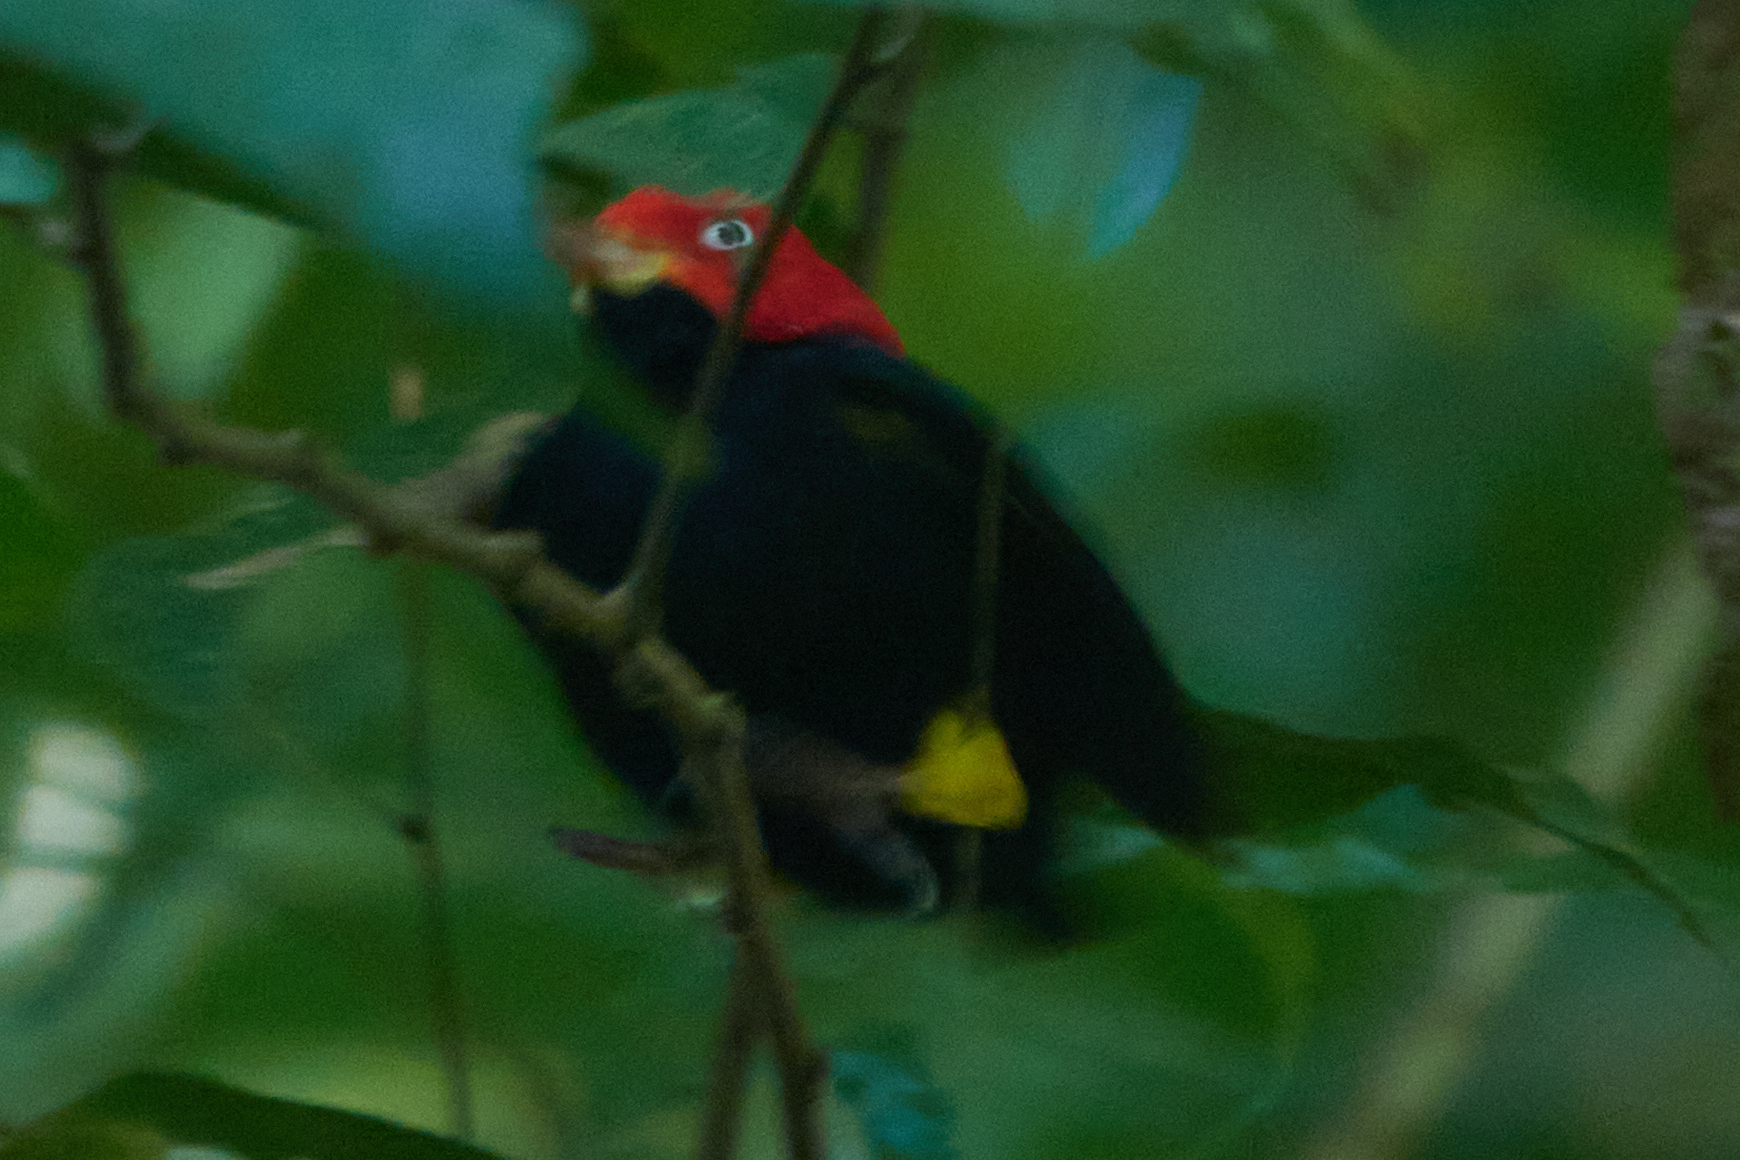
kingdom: Animalia
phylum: Chordata
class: Aves
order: Passeriformes
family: Pipridae
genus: Pipra
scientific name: Pipra mentalis
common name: Red-capped manakin
